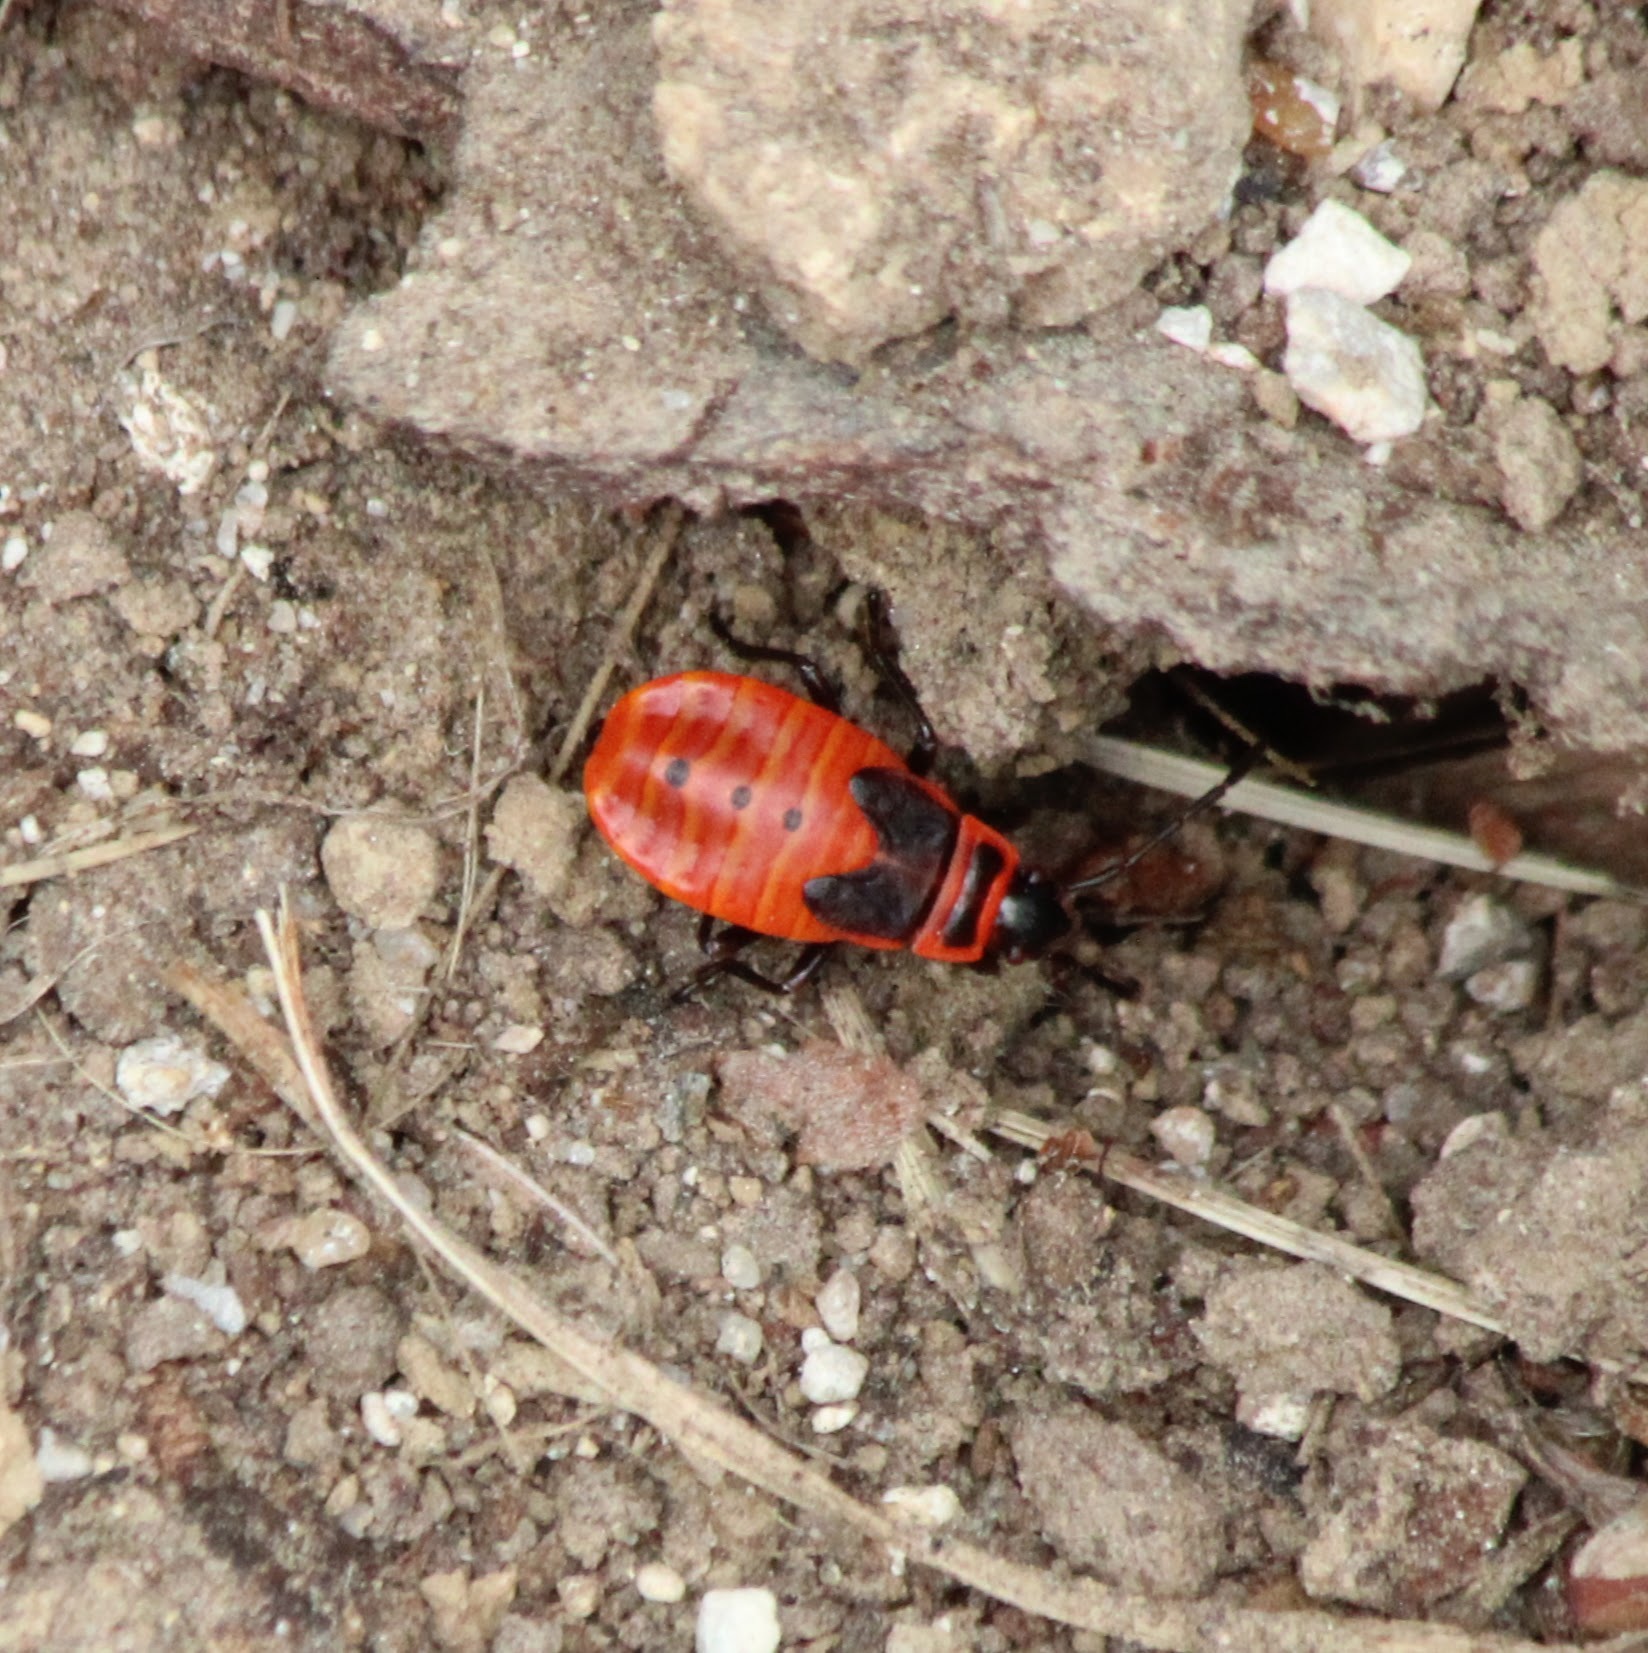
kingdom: Animalia
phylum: Arthropoda
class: Insecta
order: Hemiptera
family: Pyrrhocoridae
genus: Pyrrhocoris
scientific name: Pyrrhocoris apterus
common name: Firebug
